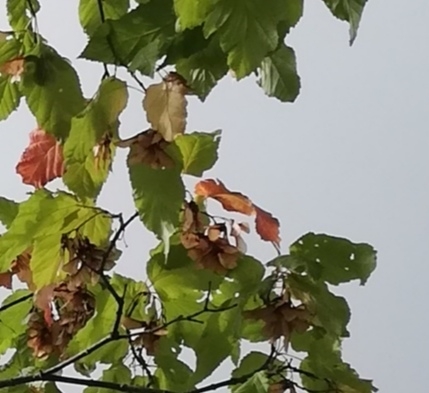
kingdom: Plantae
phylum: Tracheophyta
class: Magnoliopsida
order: Sapindales
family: Sapindaceae
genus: Acer
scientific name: Acer tataricum
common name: Tartar maple
